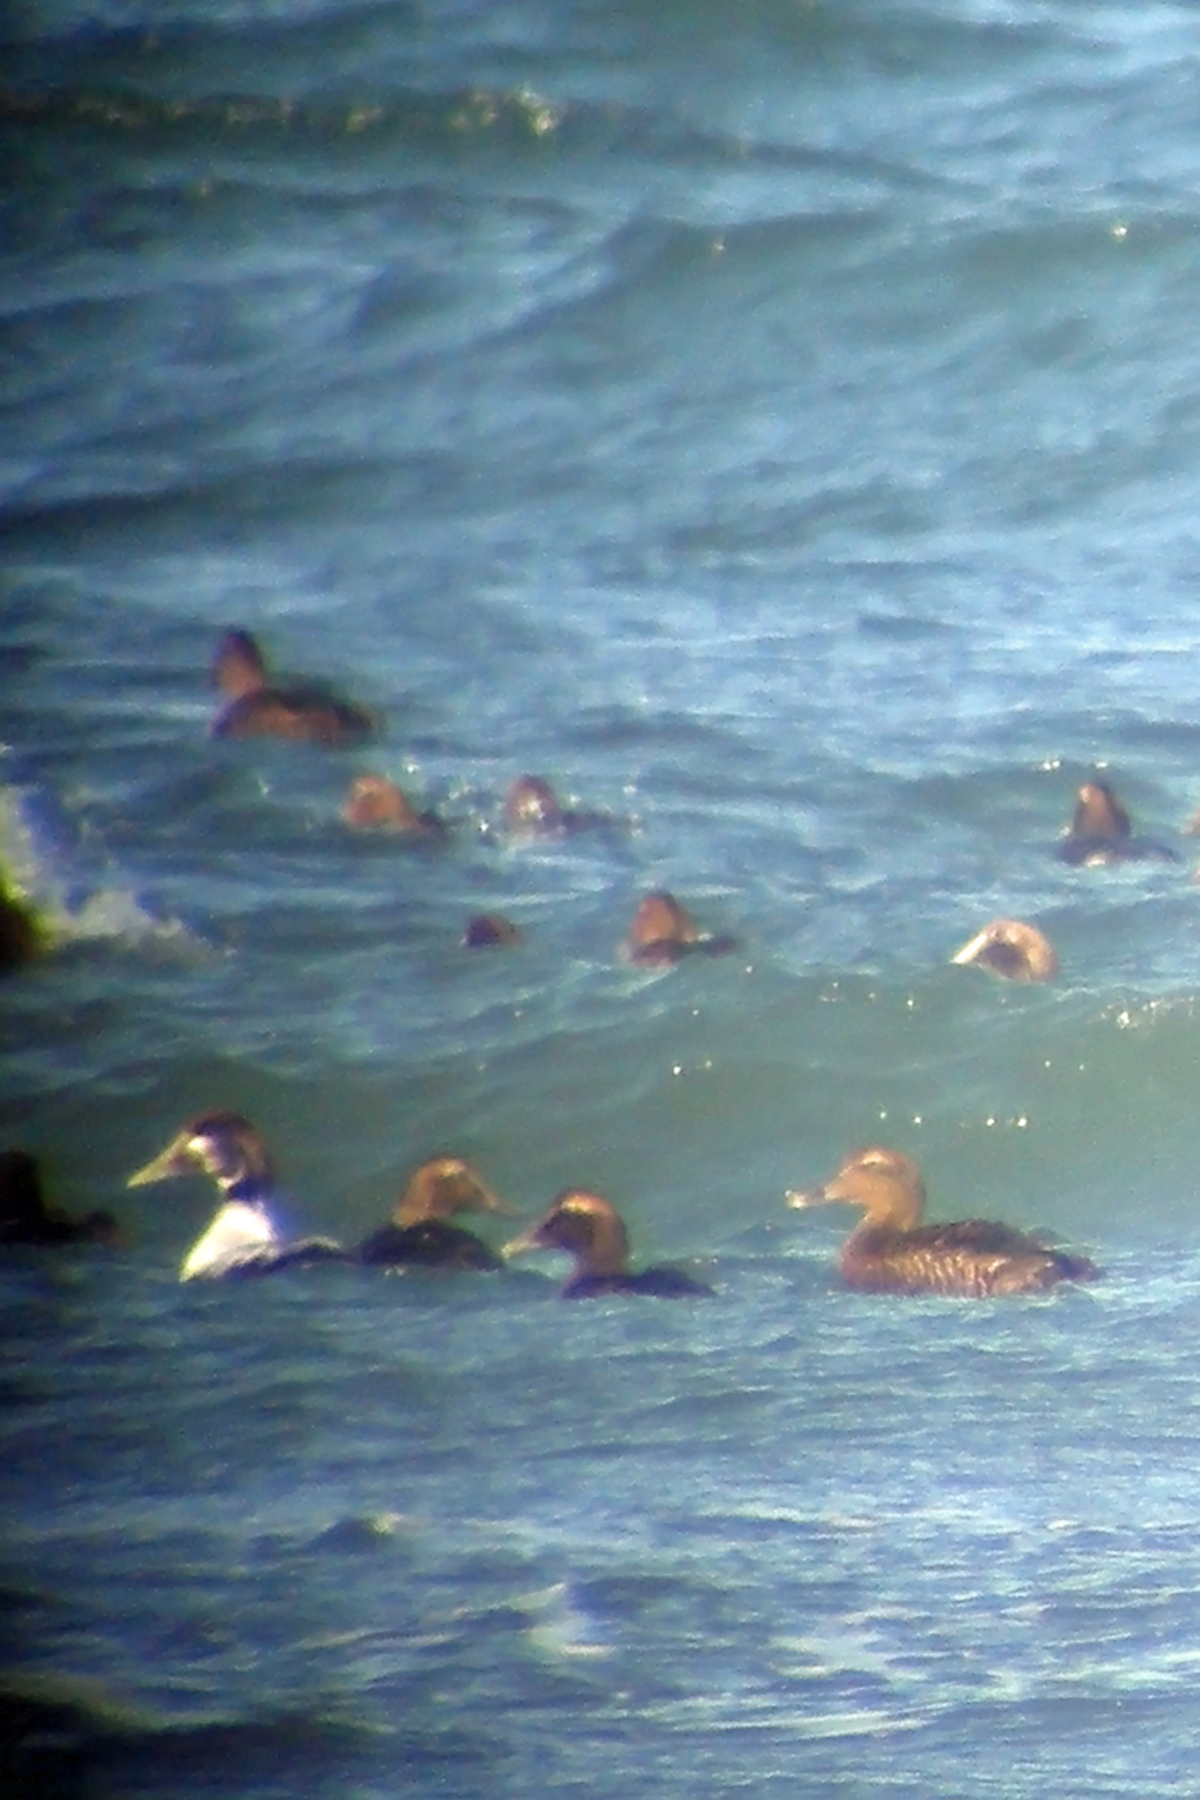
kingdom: Animalia
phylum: Chordata
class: Aves
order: Anseriformes
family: Anatidae
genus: Somateria
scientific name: Somateria mollissima
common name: Common eider
